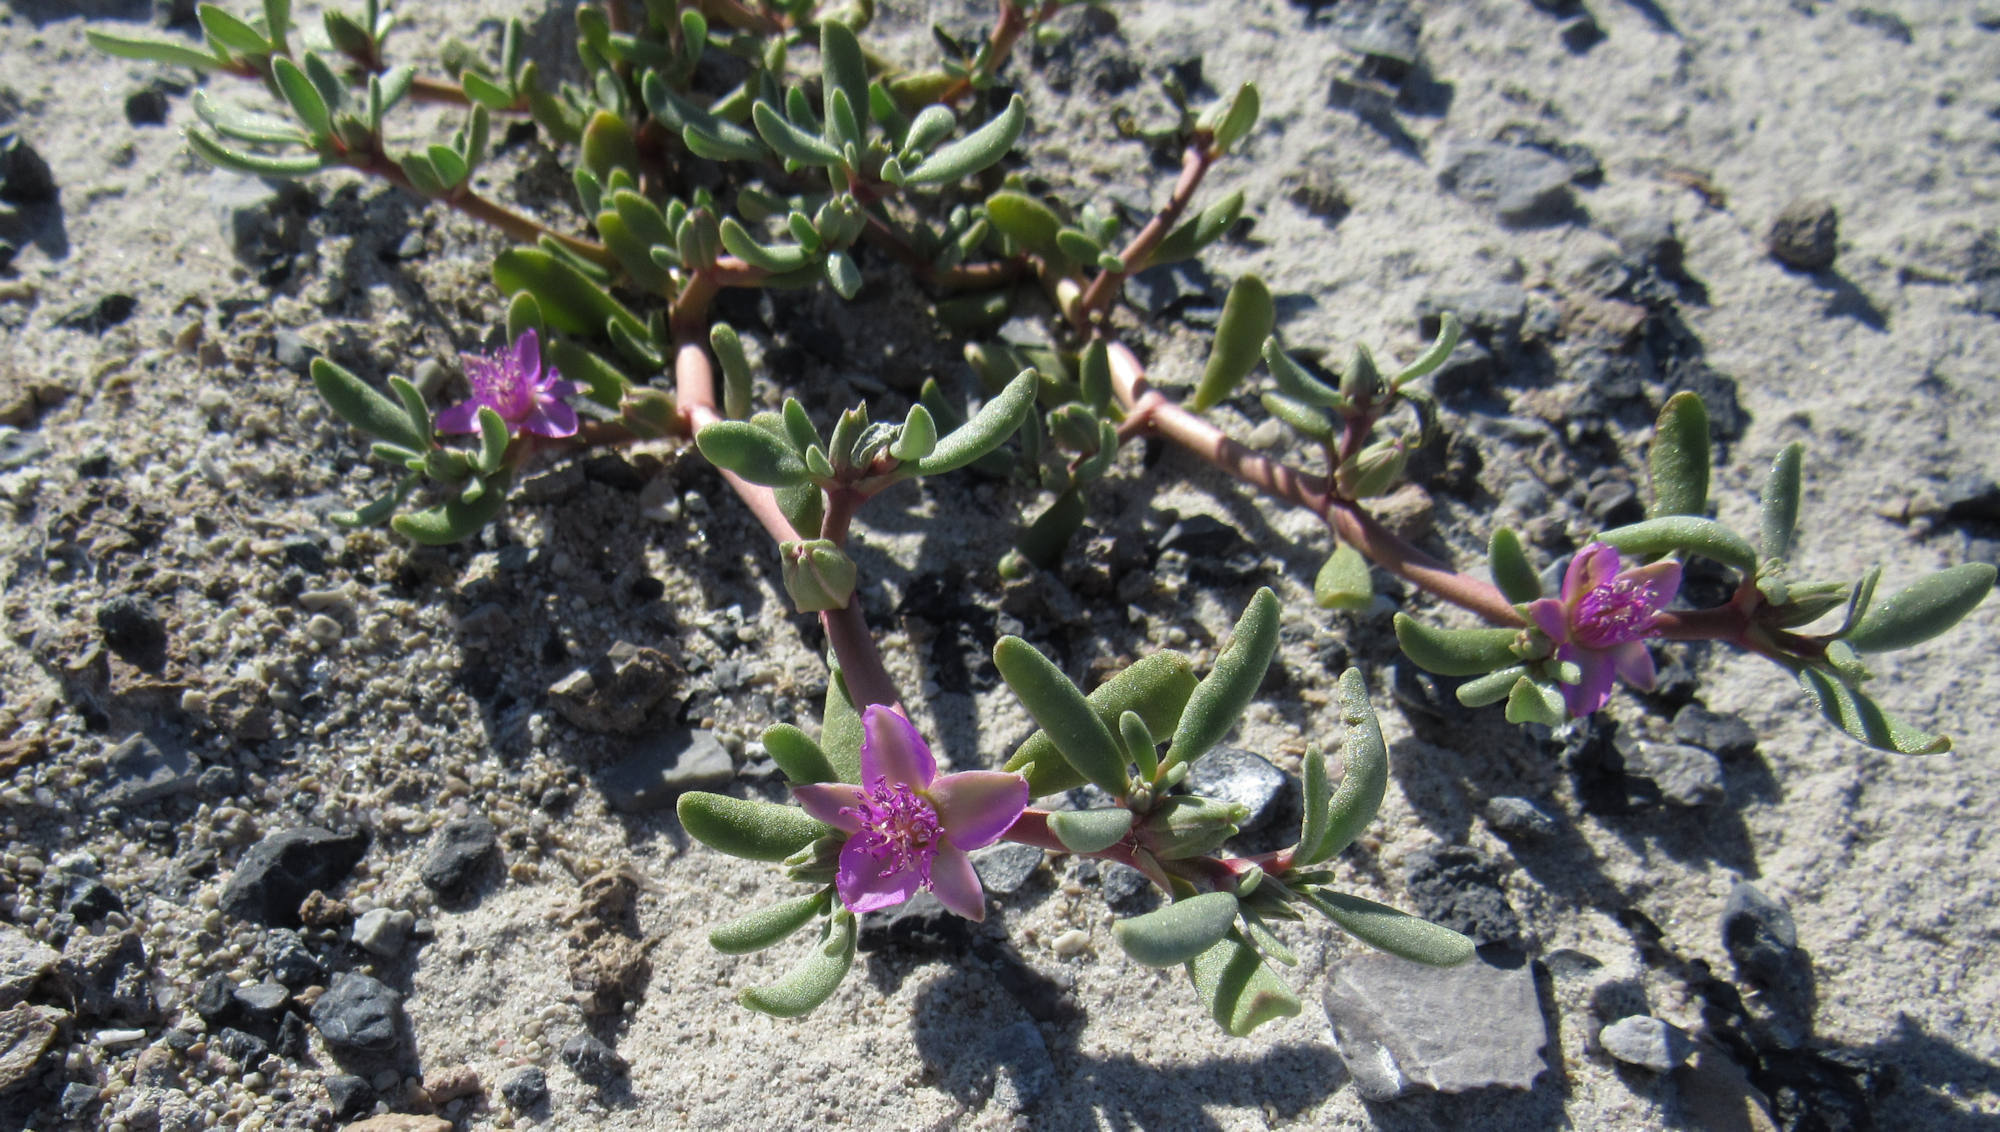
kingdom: Plantae
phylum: Tracheophyta
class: Magnoliopsida
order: Caryophyllales
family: Aizoaceae
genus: Sesuvium
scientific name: Sesuvium revolutifolium
